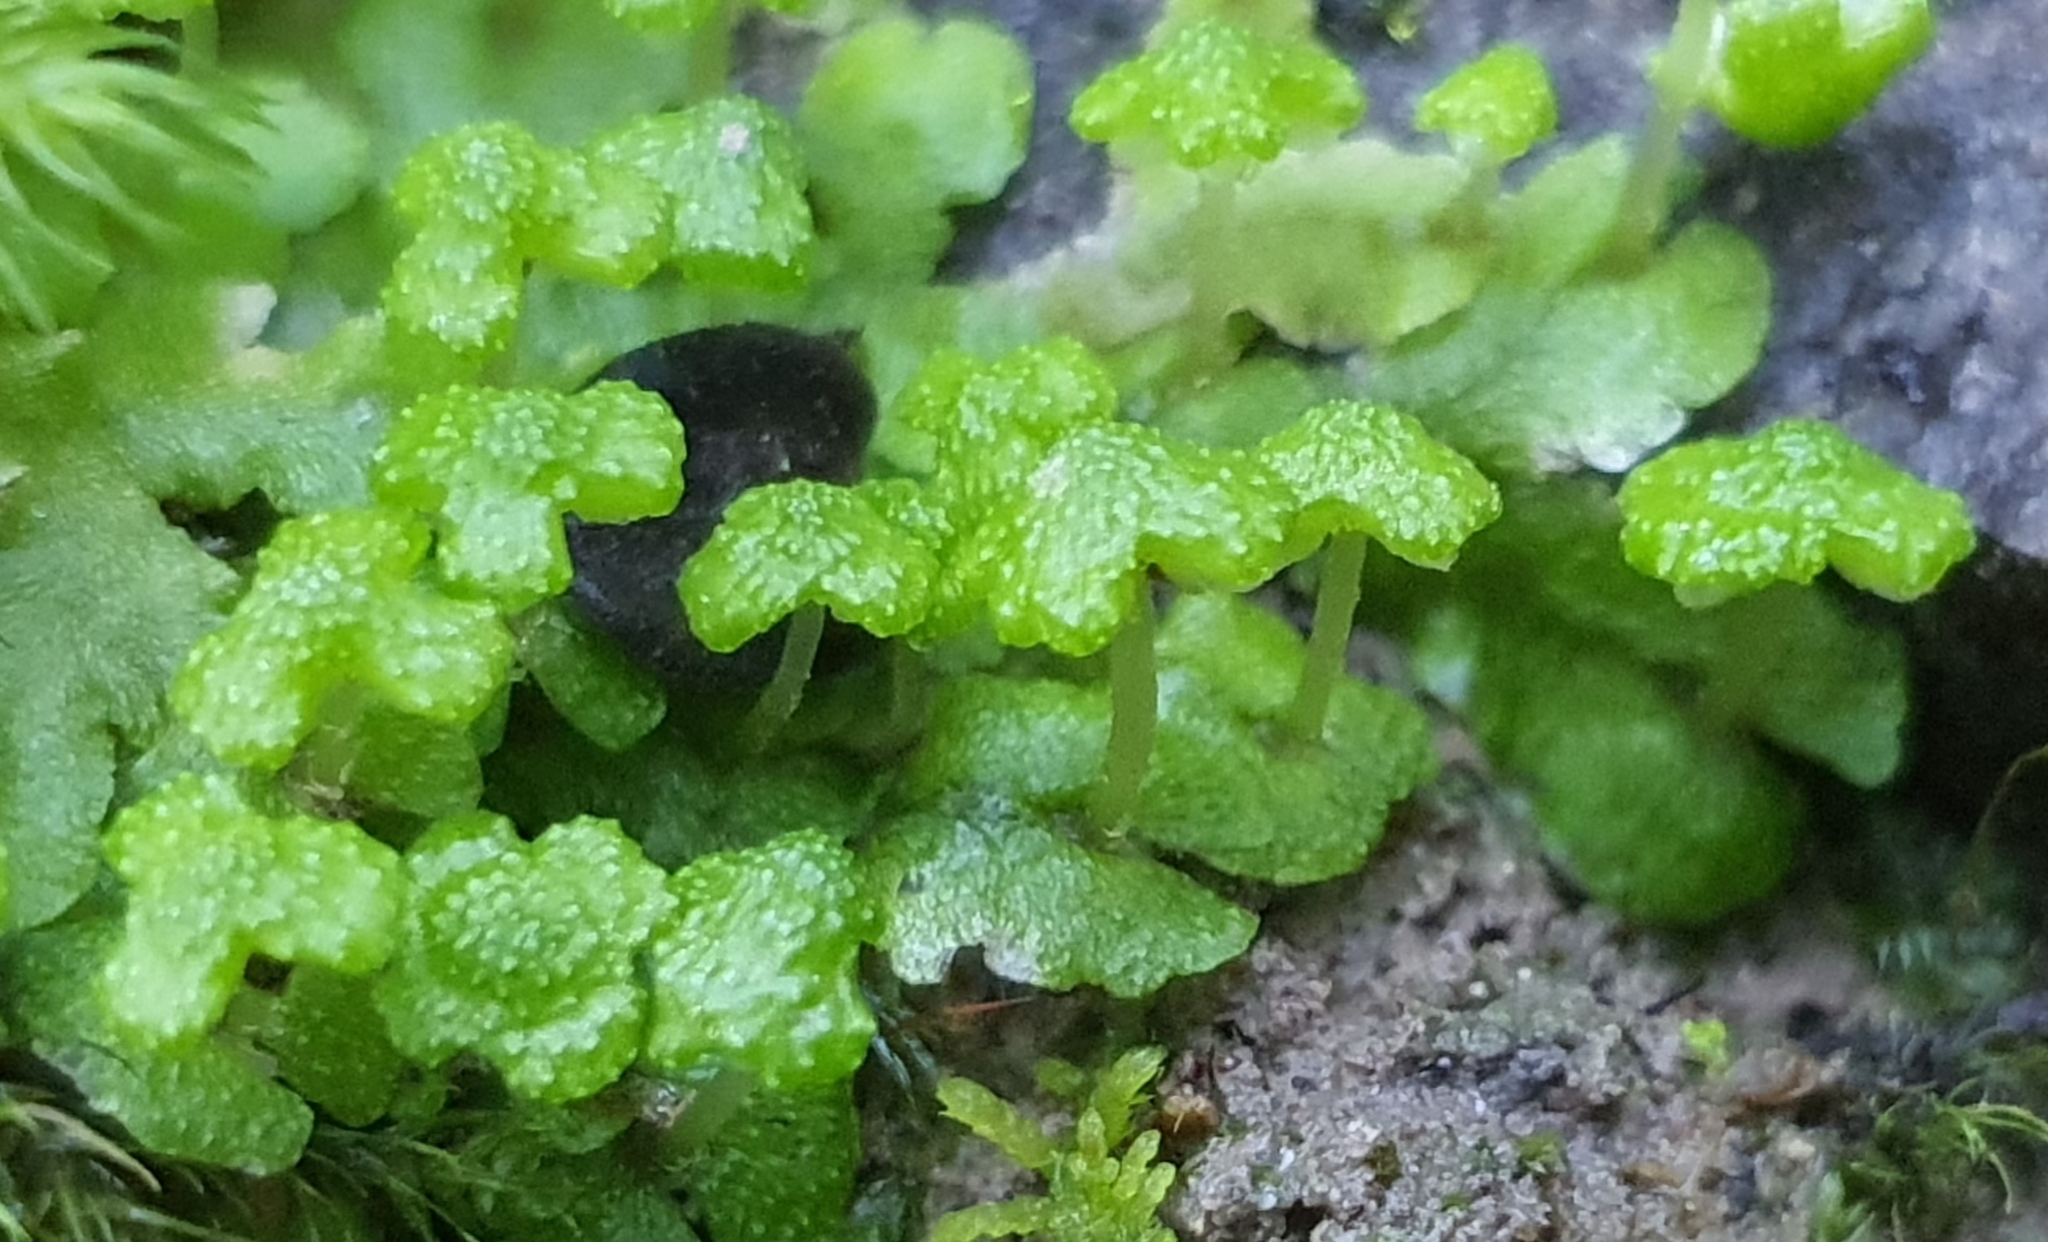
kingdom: Plantae
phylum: Marchantiophyta
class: Marchantiopsida
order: Marchantiales
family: Aytoniaceae
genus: Asterella
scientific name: Asterella tenera
